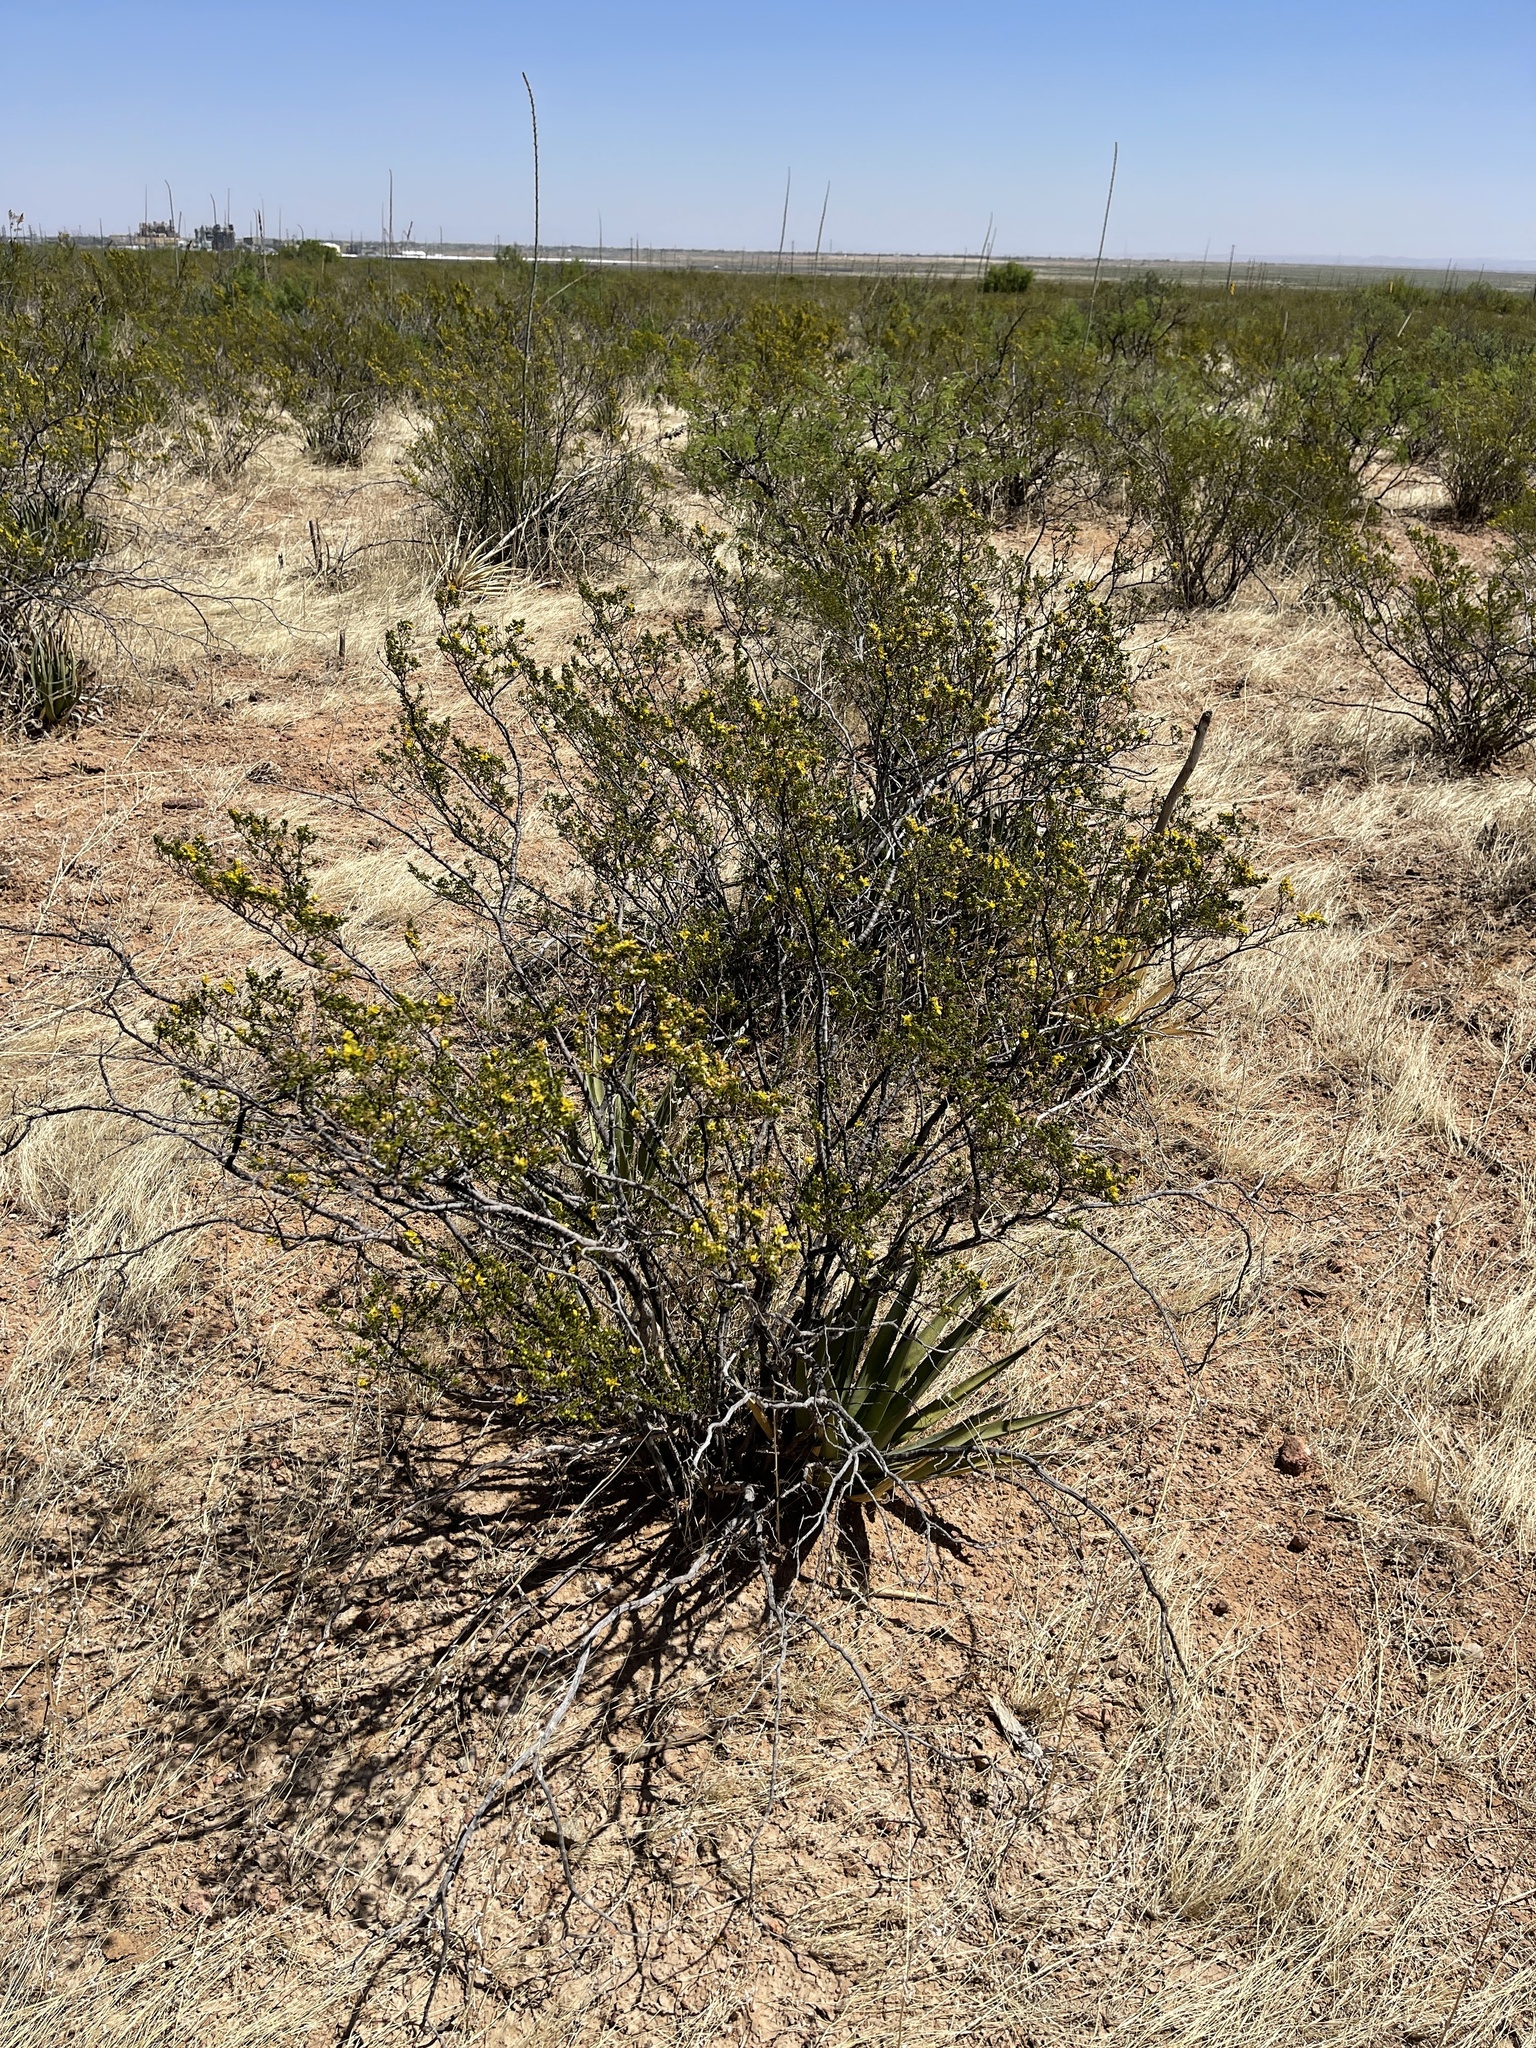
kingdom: Plantae
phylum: Tracheophyta
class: Magnoliopsida
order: Zygophyllales
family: Zygophyllaceae
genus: Larrea
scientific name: Larrea tridentata
